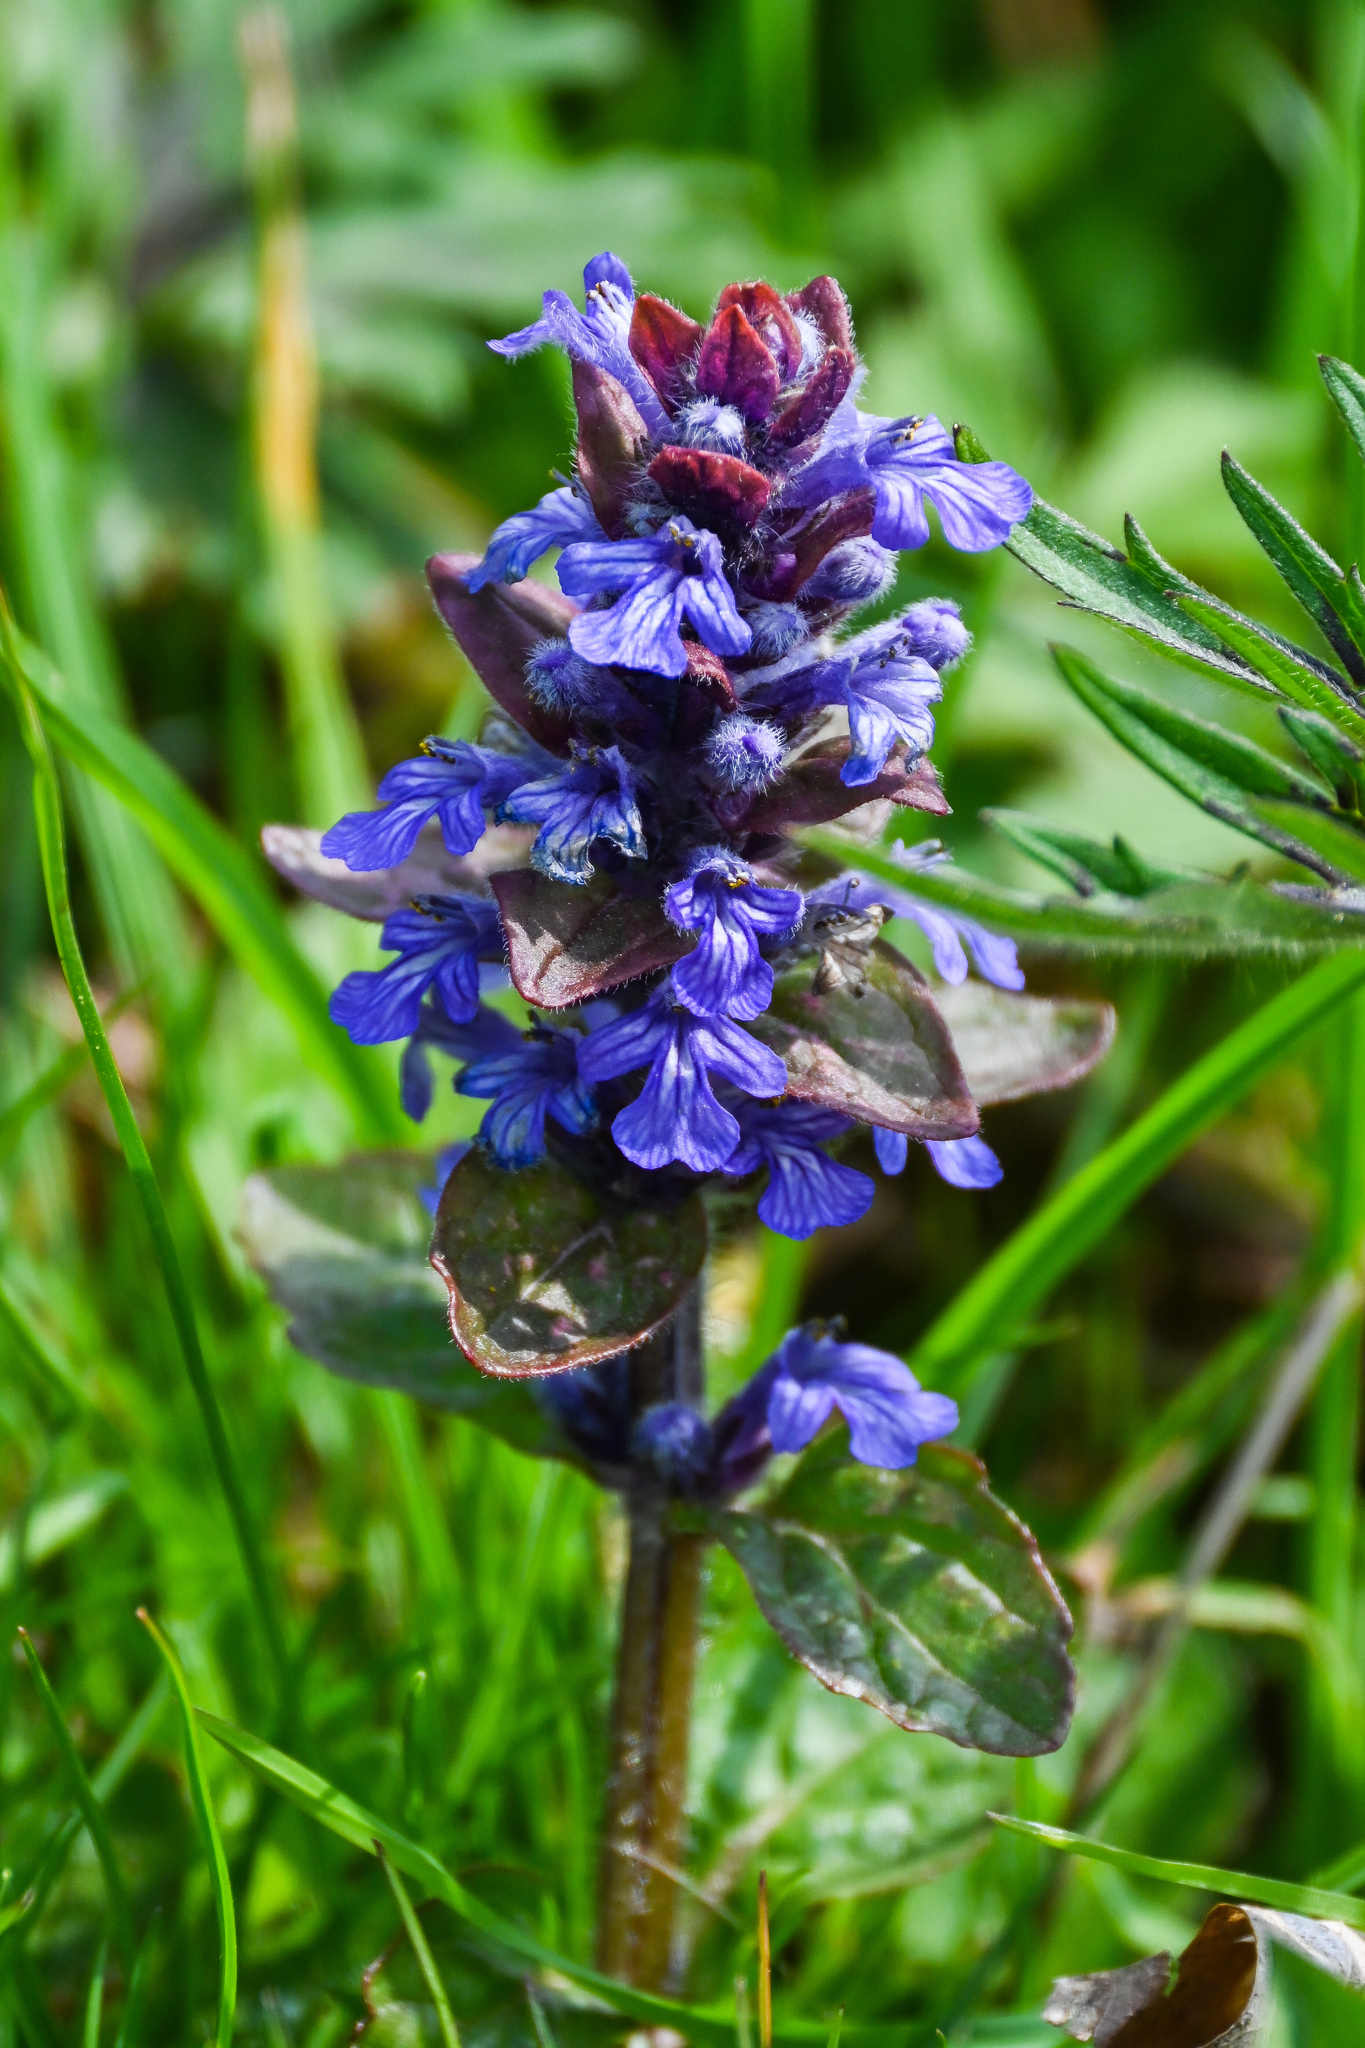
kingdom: Plantae
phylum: Tracheophyta
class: Magnoliopsida
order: Lamiales
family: Lamiaceae
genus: Ajuga
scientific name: Ajuga reptans
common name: Bugle
